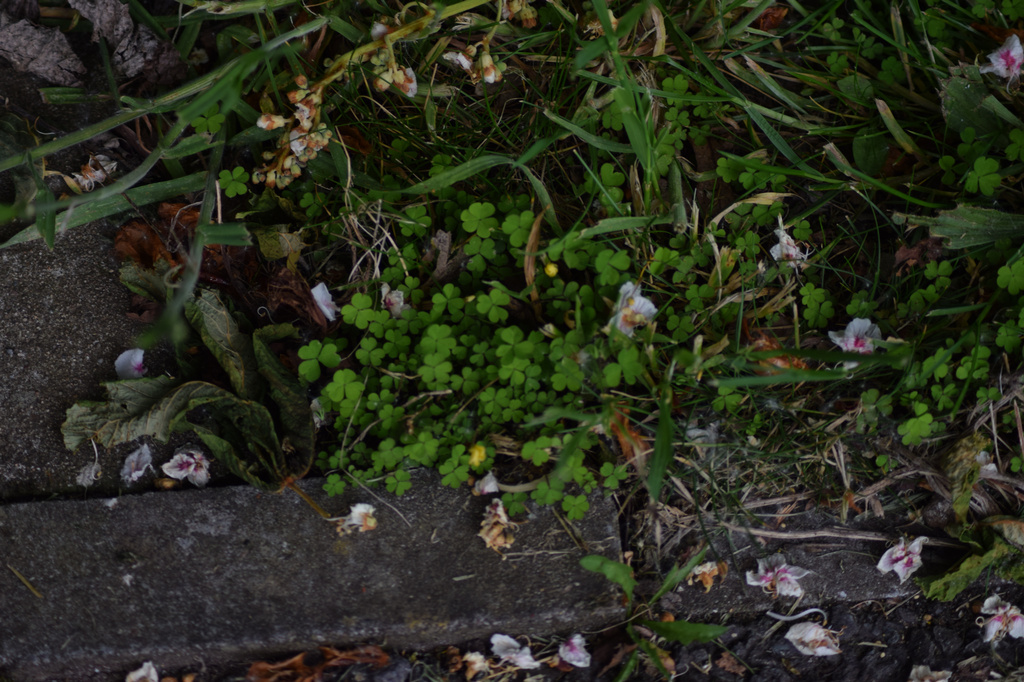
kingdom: Plantae
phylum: Tracheophyta
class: Magnoliopsida
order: Oxalidales
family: Oxalidaceae
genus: Oxalis
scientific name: Oxalis exilis
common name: Least yellow-sorrel
